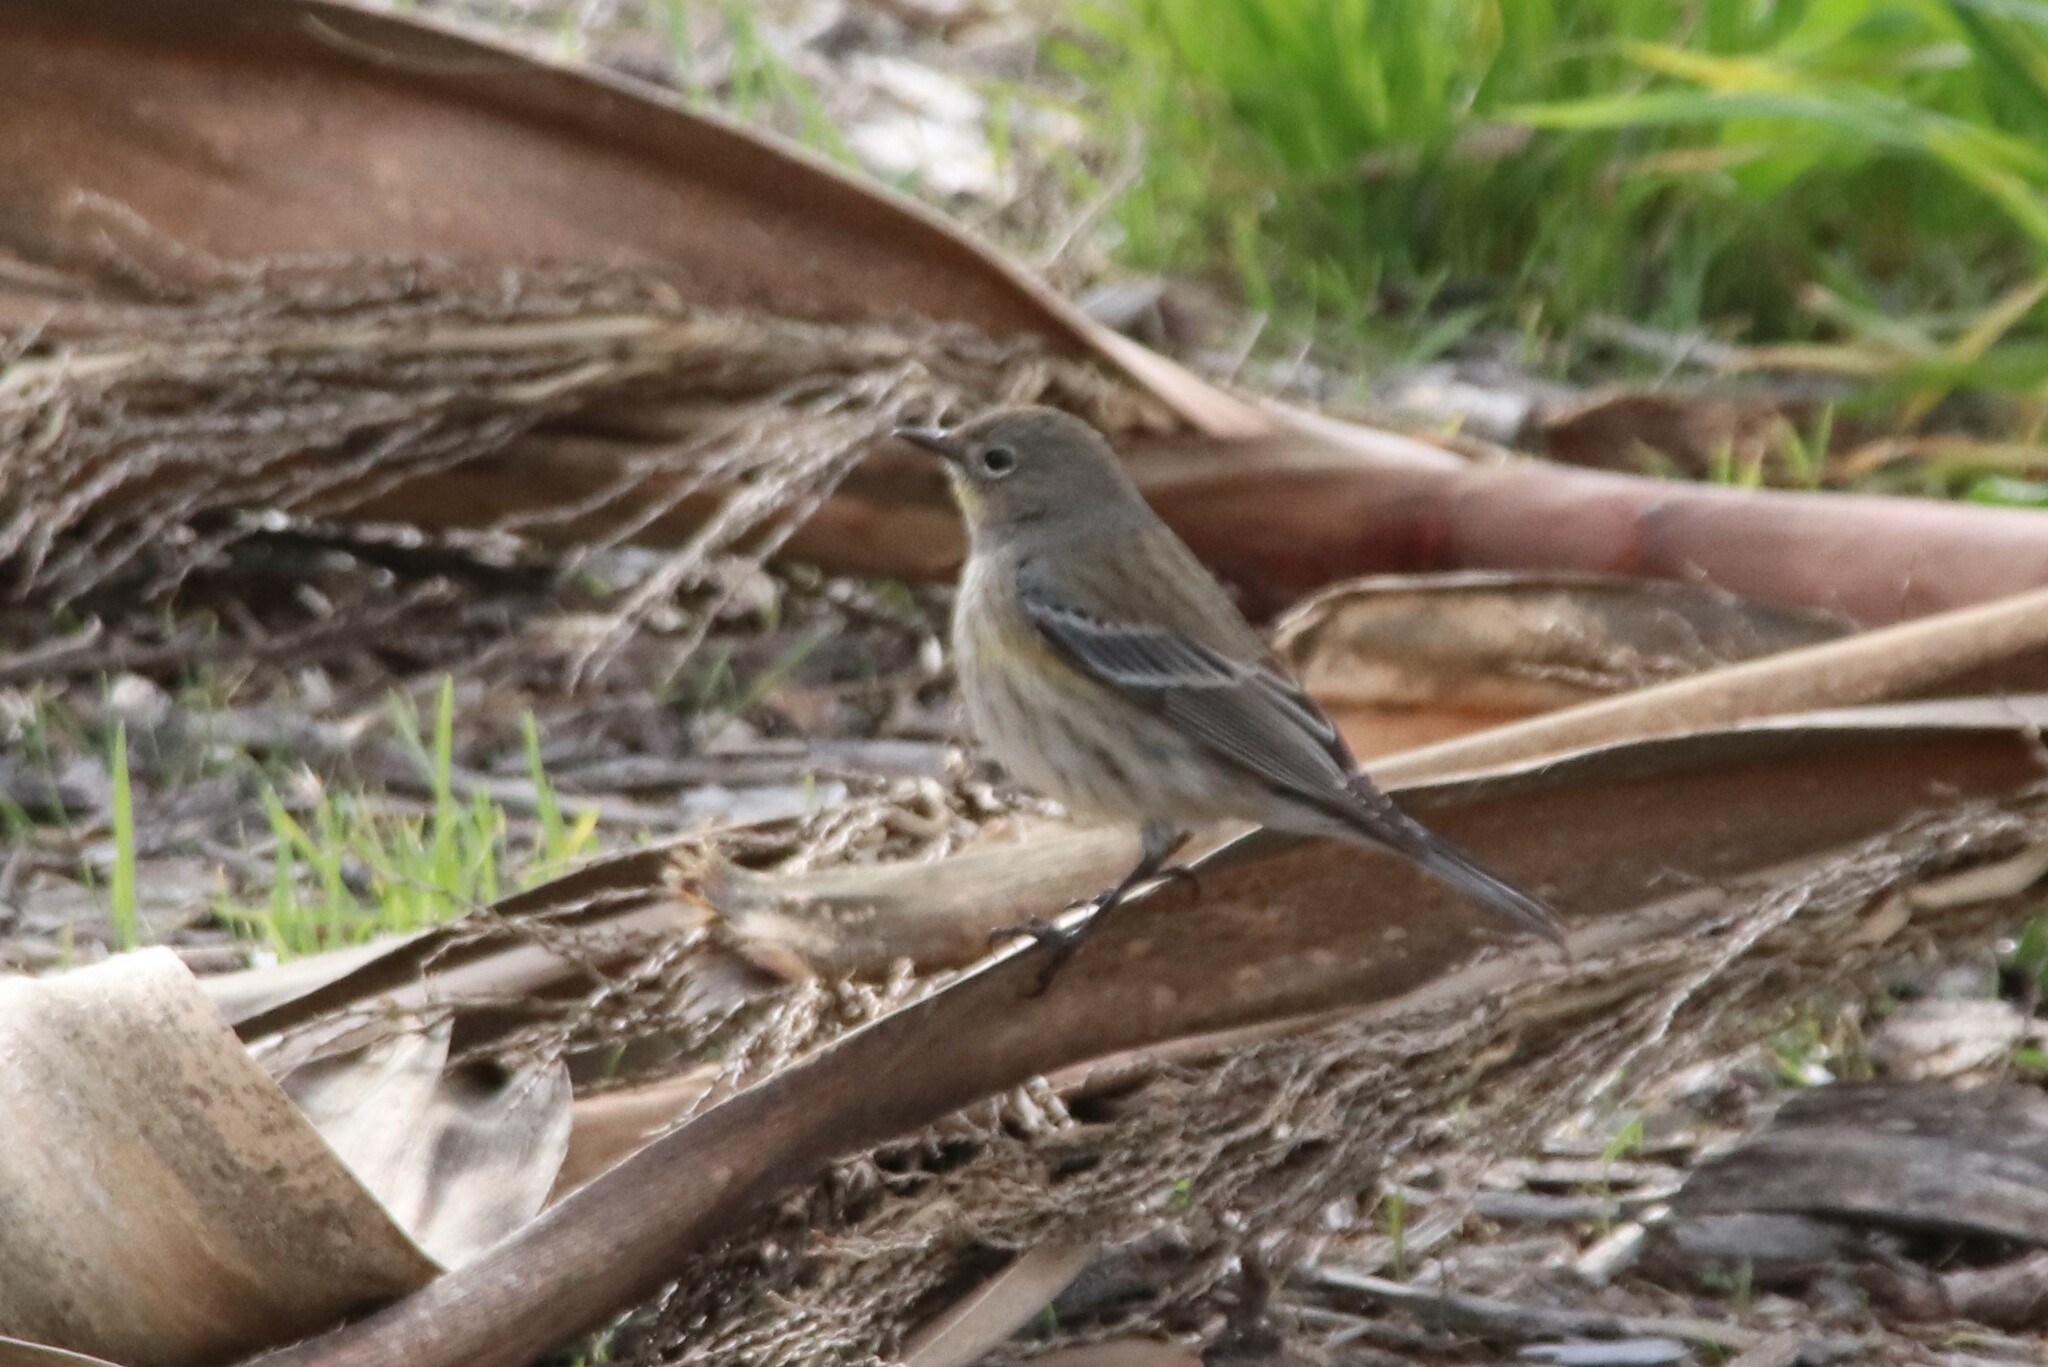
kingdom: Animalia
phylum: Chordata
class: Aves
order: Passeriformes
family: Parulidae
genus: Setophaga
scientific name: Setophaga coronata
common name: Myrtle warbler
